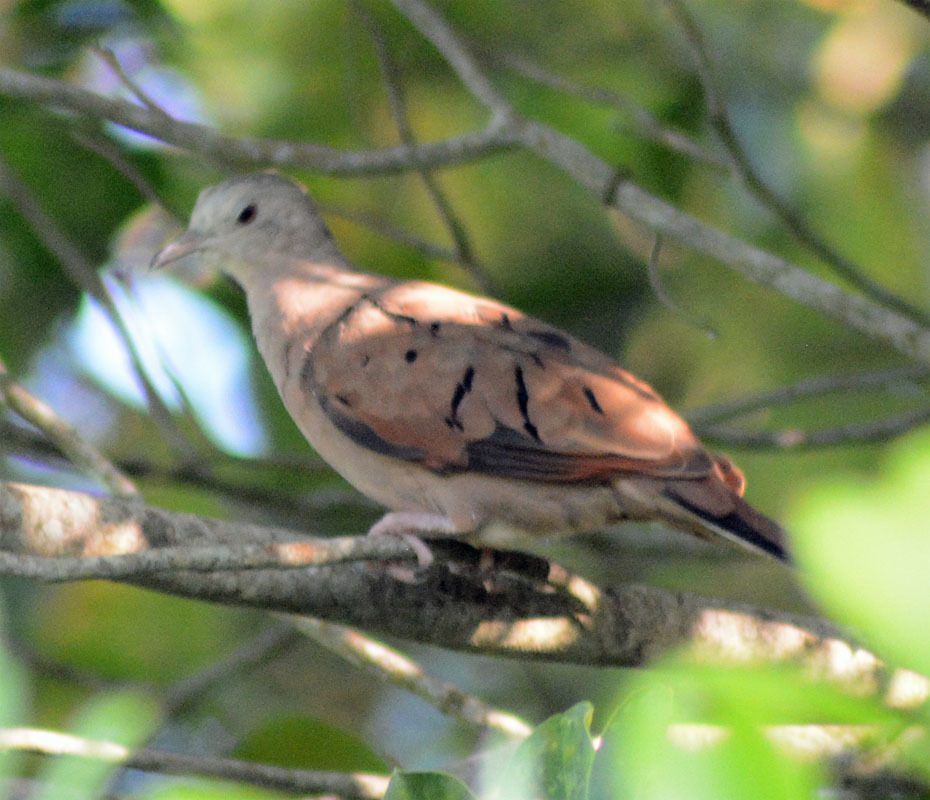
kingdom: Animalia
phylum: Chordata
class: Aves
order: Columbiformes
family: Columbidae
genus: Columbina
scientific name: Columbina talpacoti
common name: Ruddy ground dove
